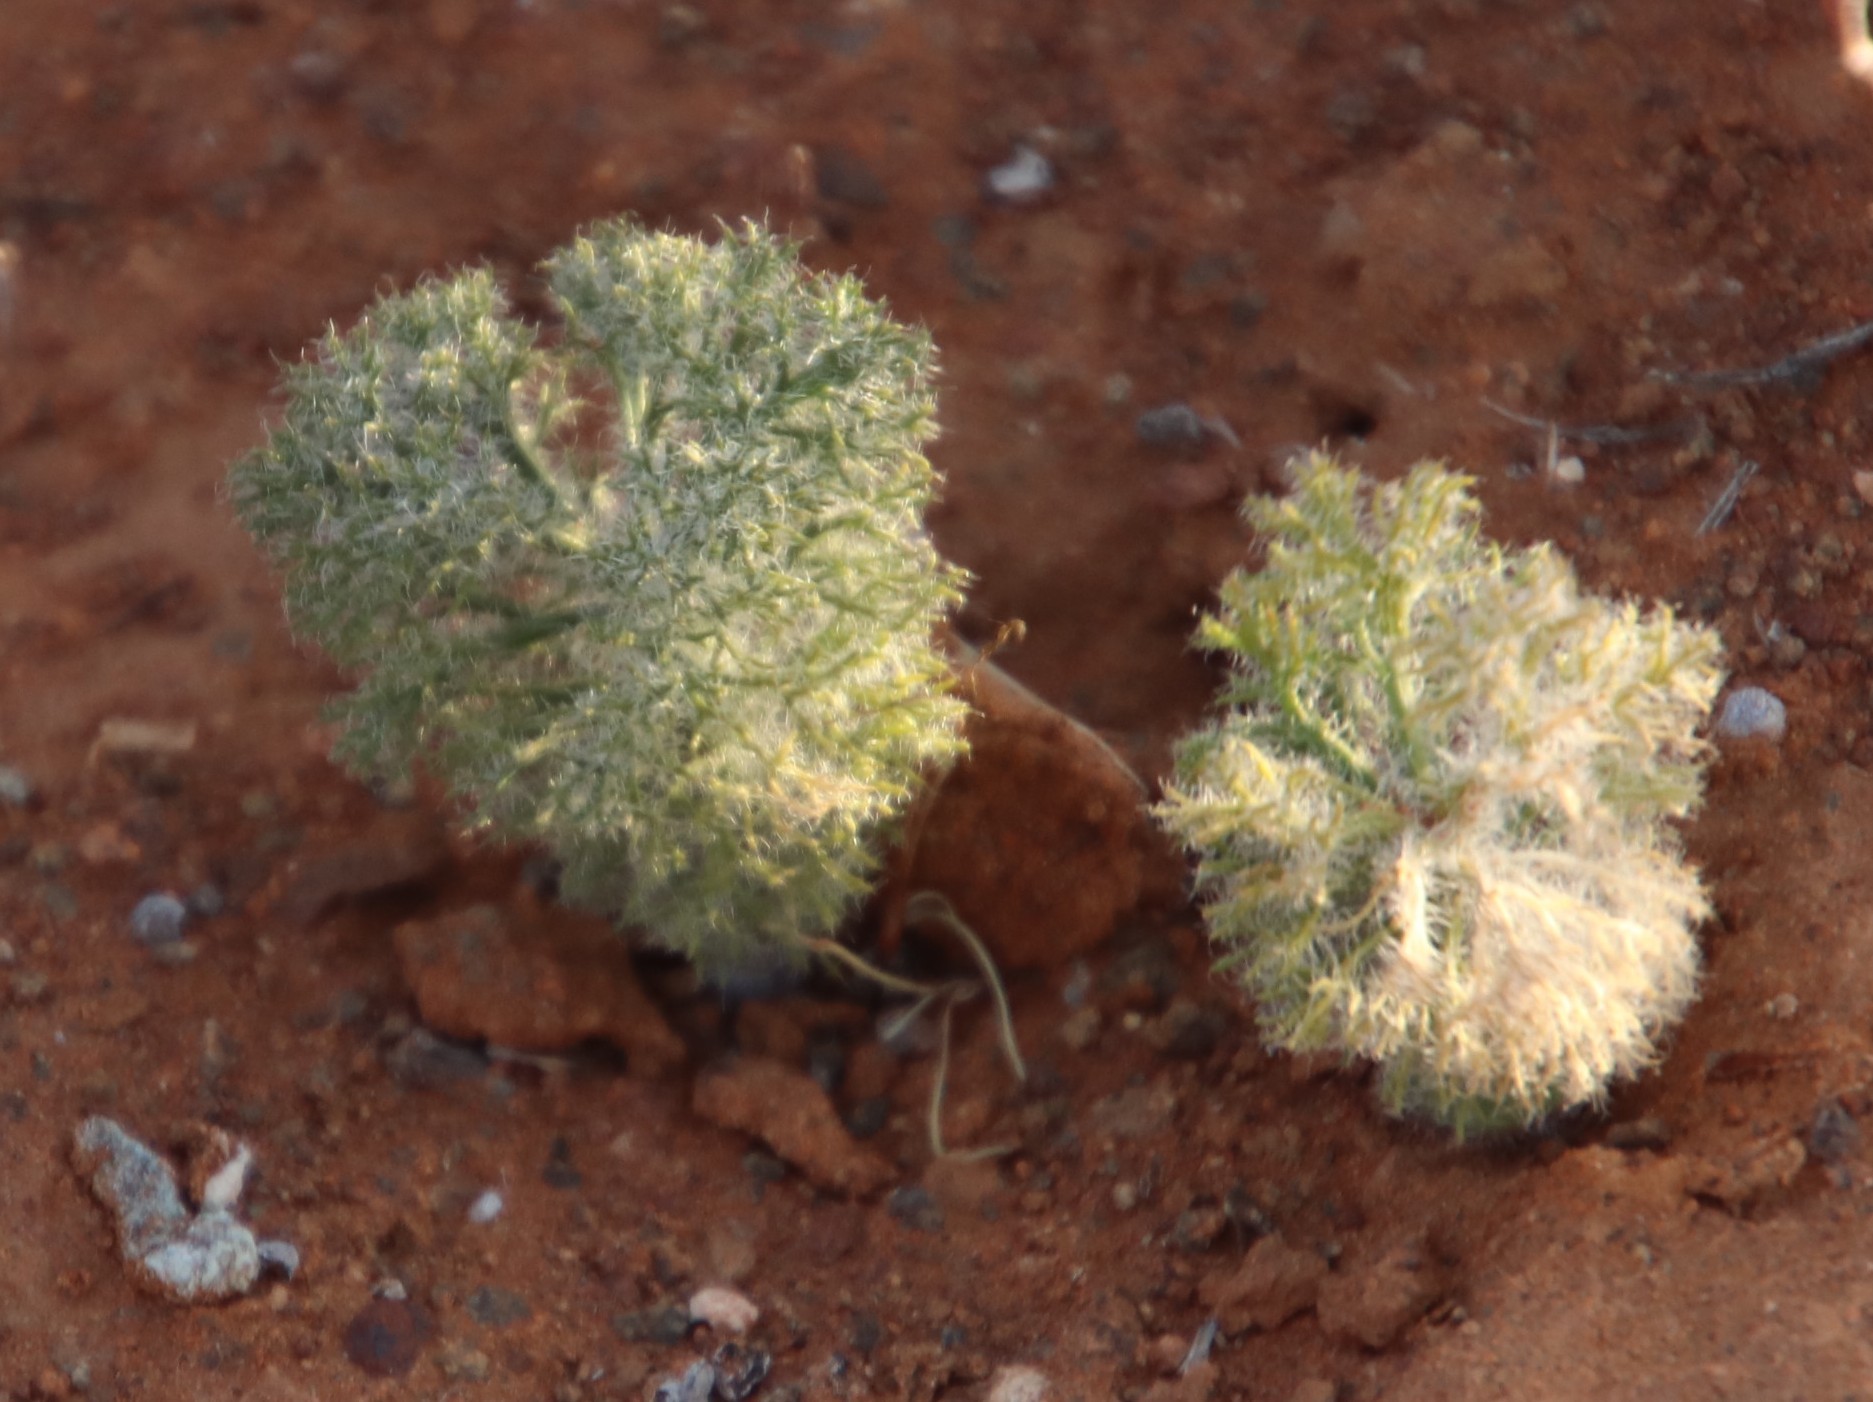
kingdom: Plantae
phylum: Tracheophyta
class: Liliopsida
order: Asparagales
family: Asparagaceae
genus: Eriospermum
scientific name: Eriospermum paradoxum
